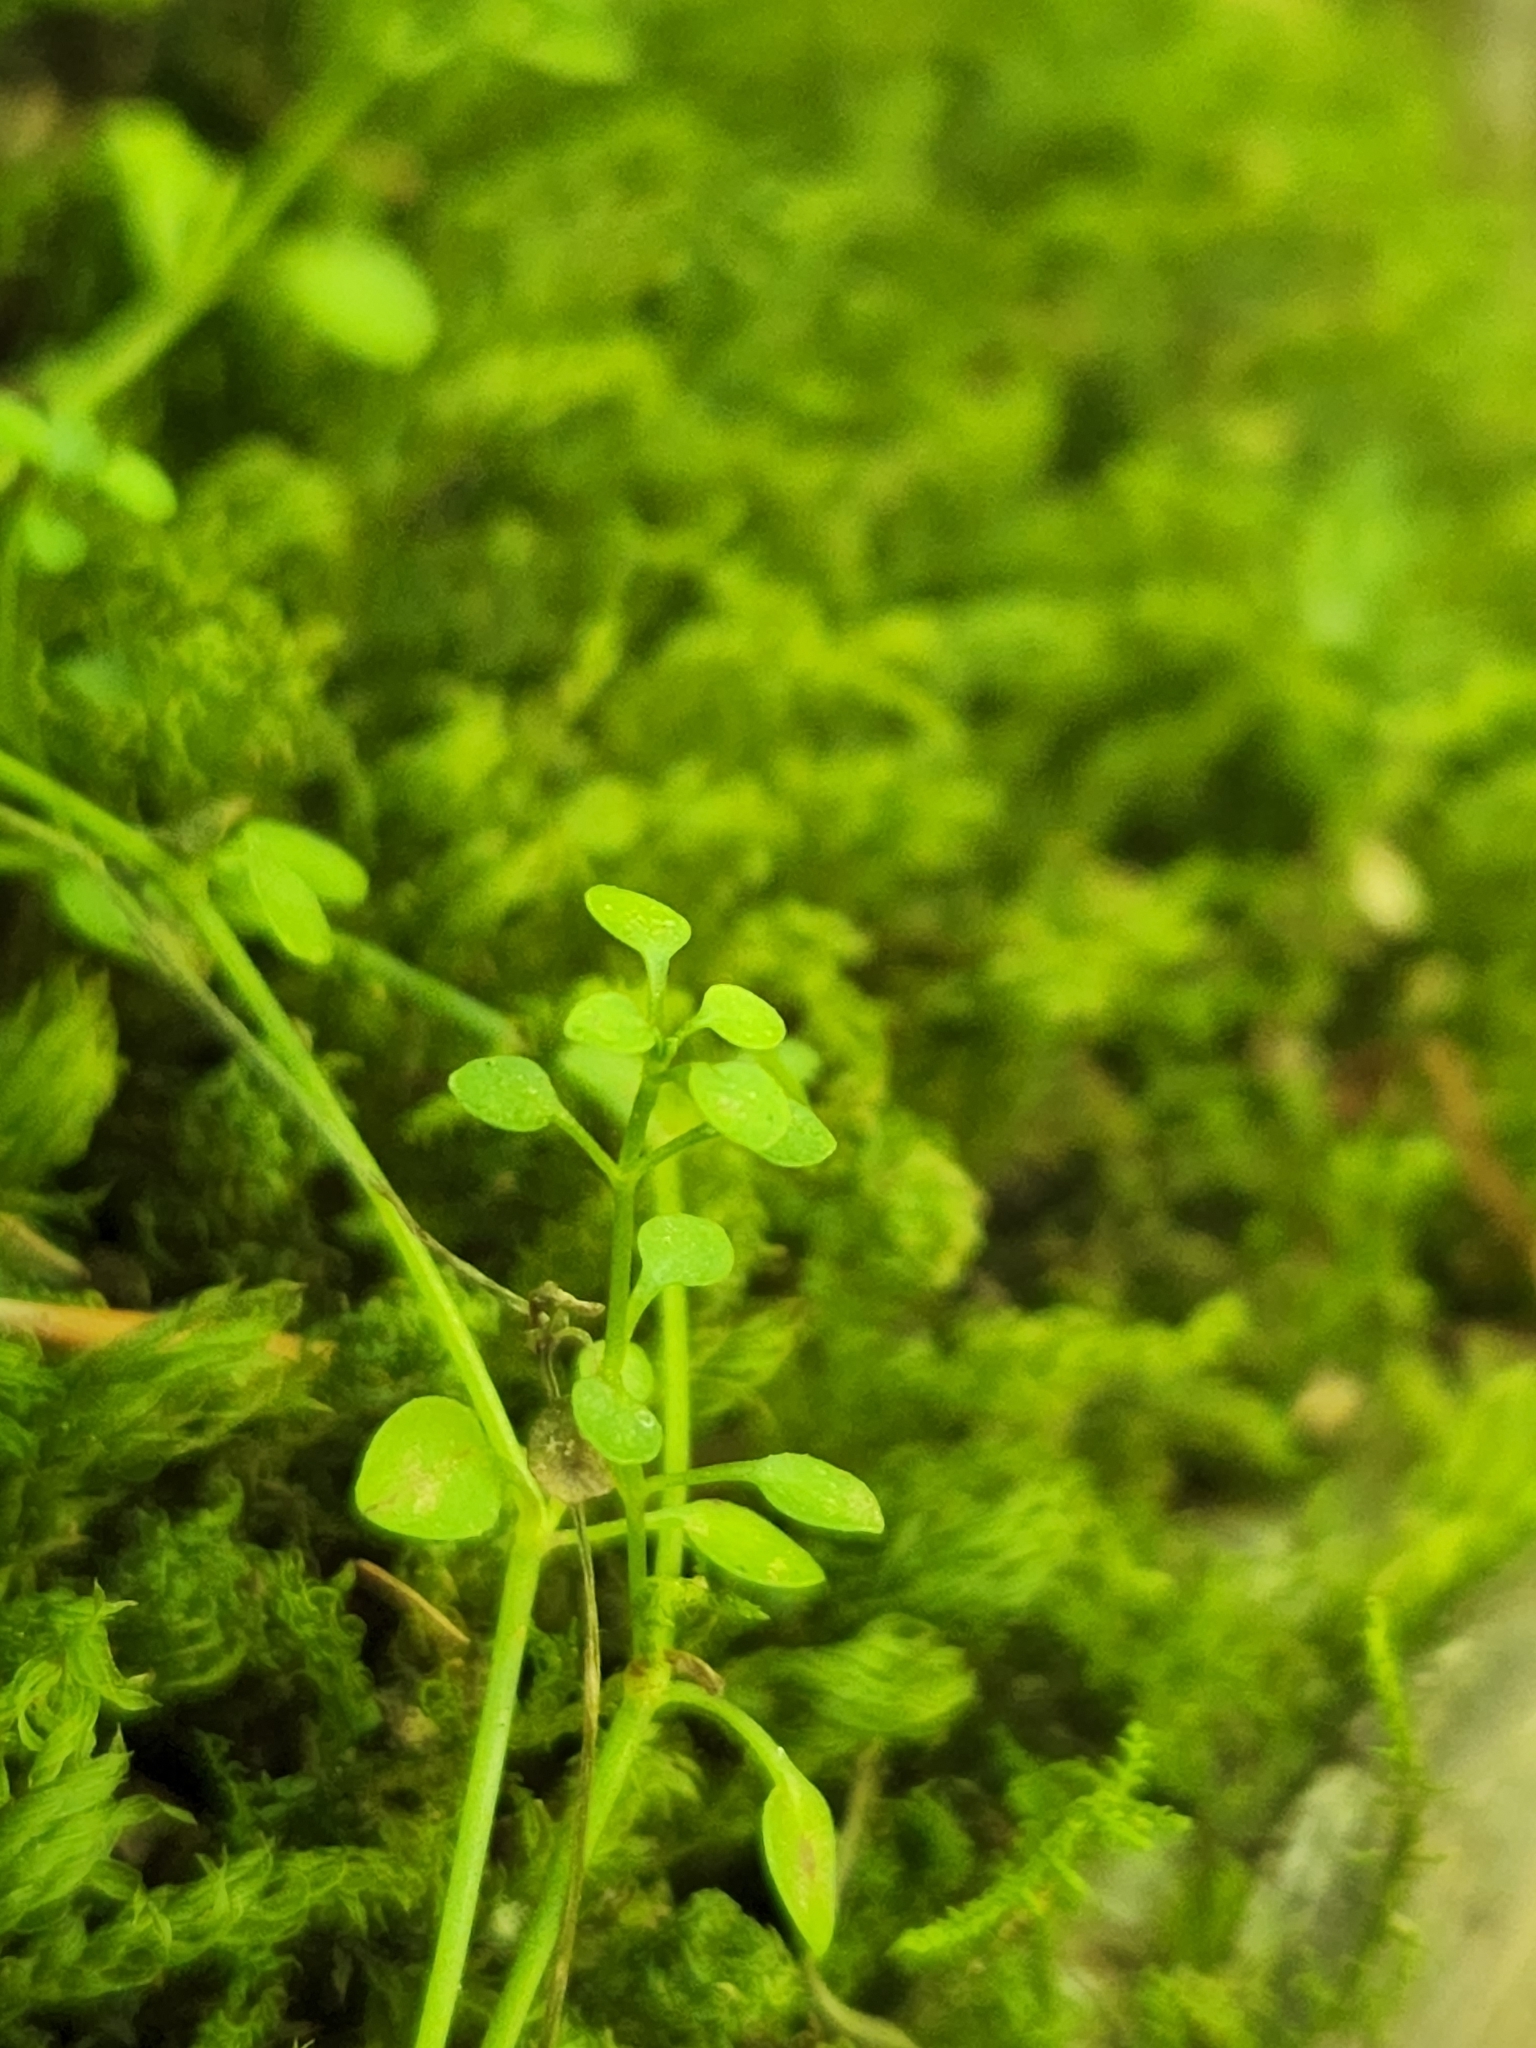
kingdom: Plantae
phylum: Tracheophyta
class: Magnoliopsida
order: Gentianales
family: Rubiaceae
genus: Houstonia
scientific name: Houstonia serpyllifolia
